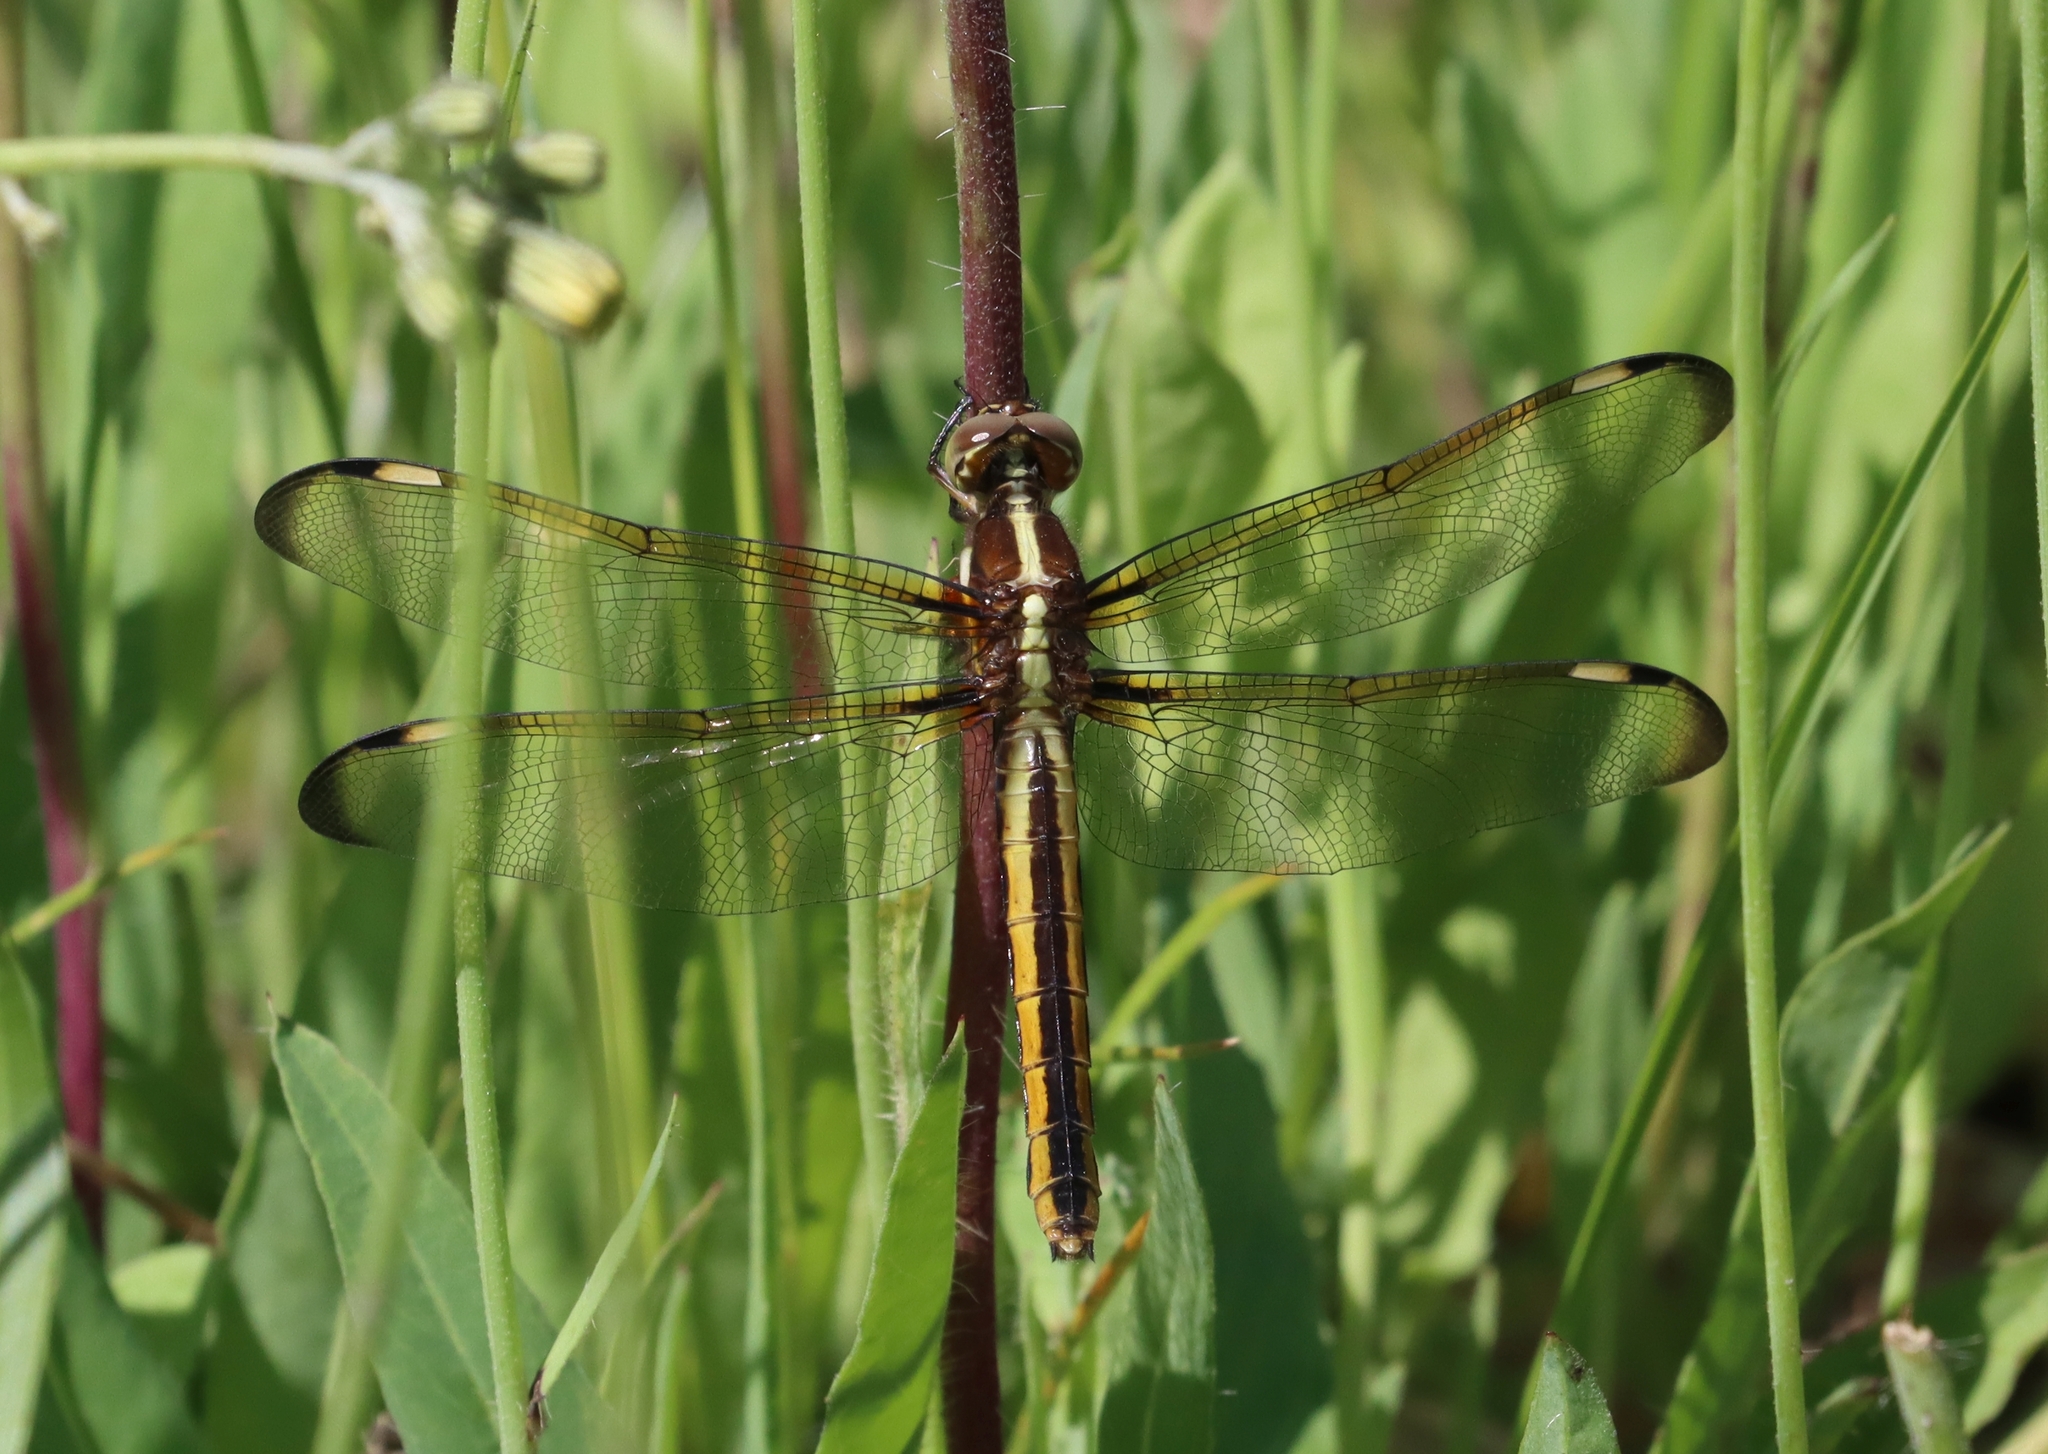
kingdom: Animalia
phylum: Arthropoda
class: Insecta
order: Odonata
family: Libellulidae
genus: Libellula
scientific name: Libellula cyanea
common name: Spangled skimmer
